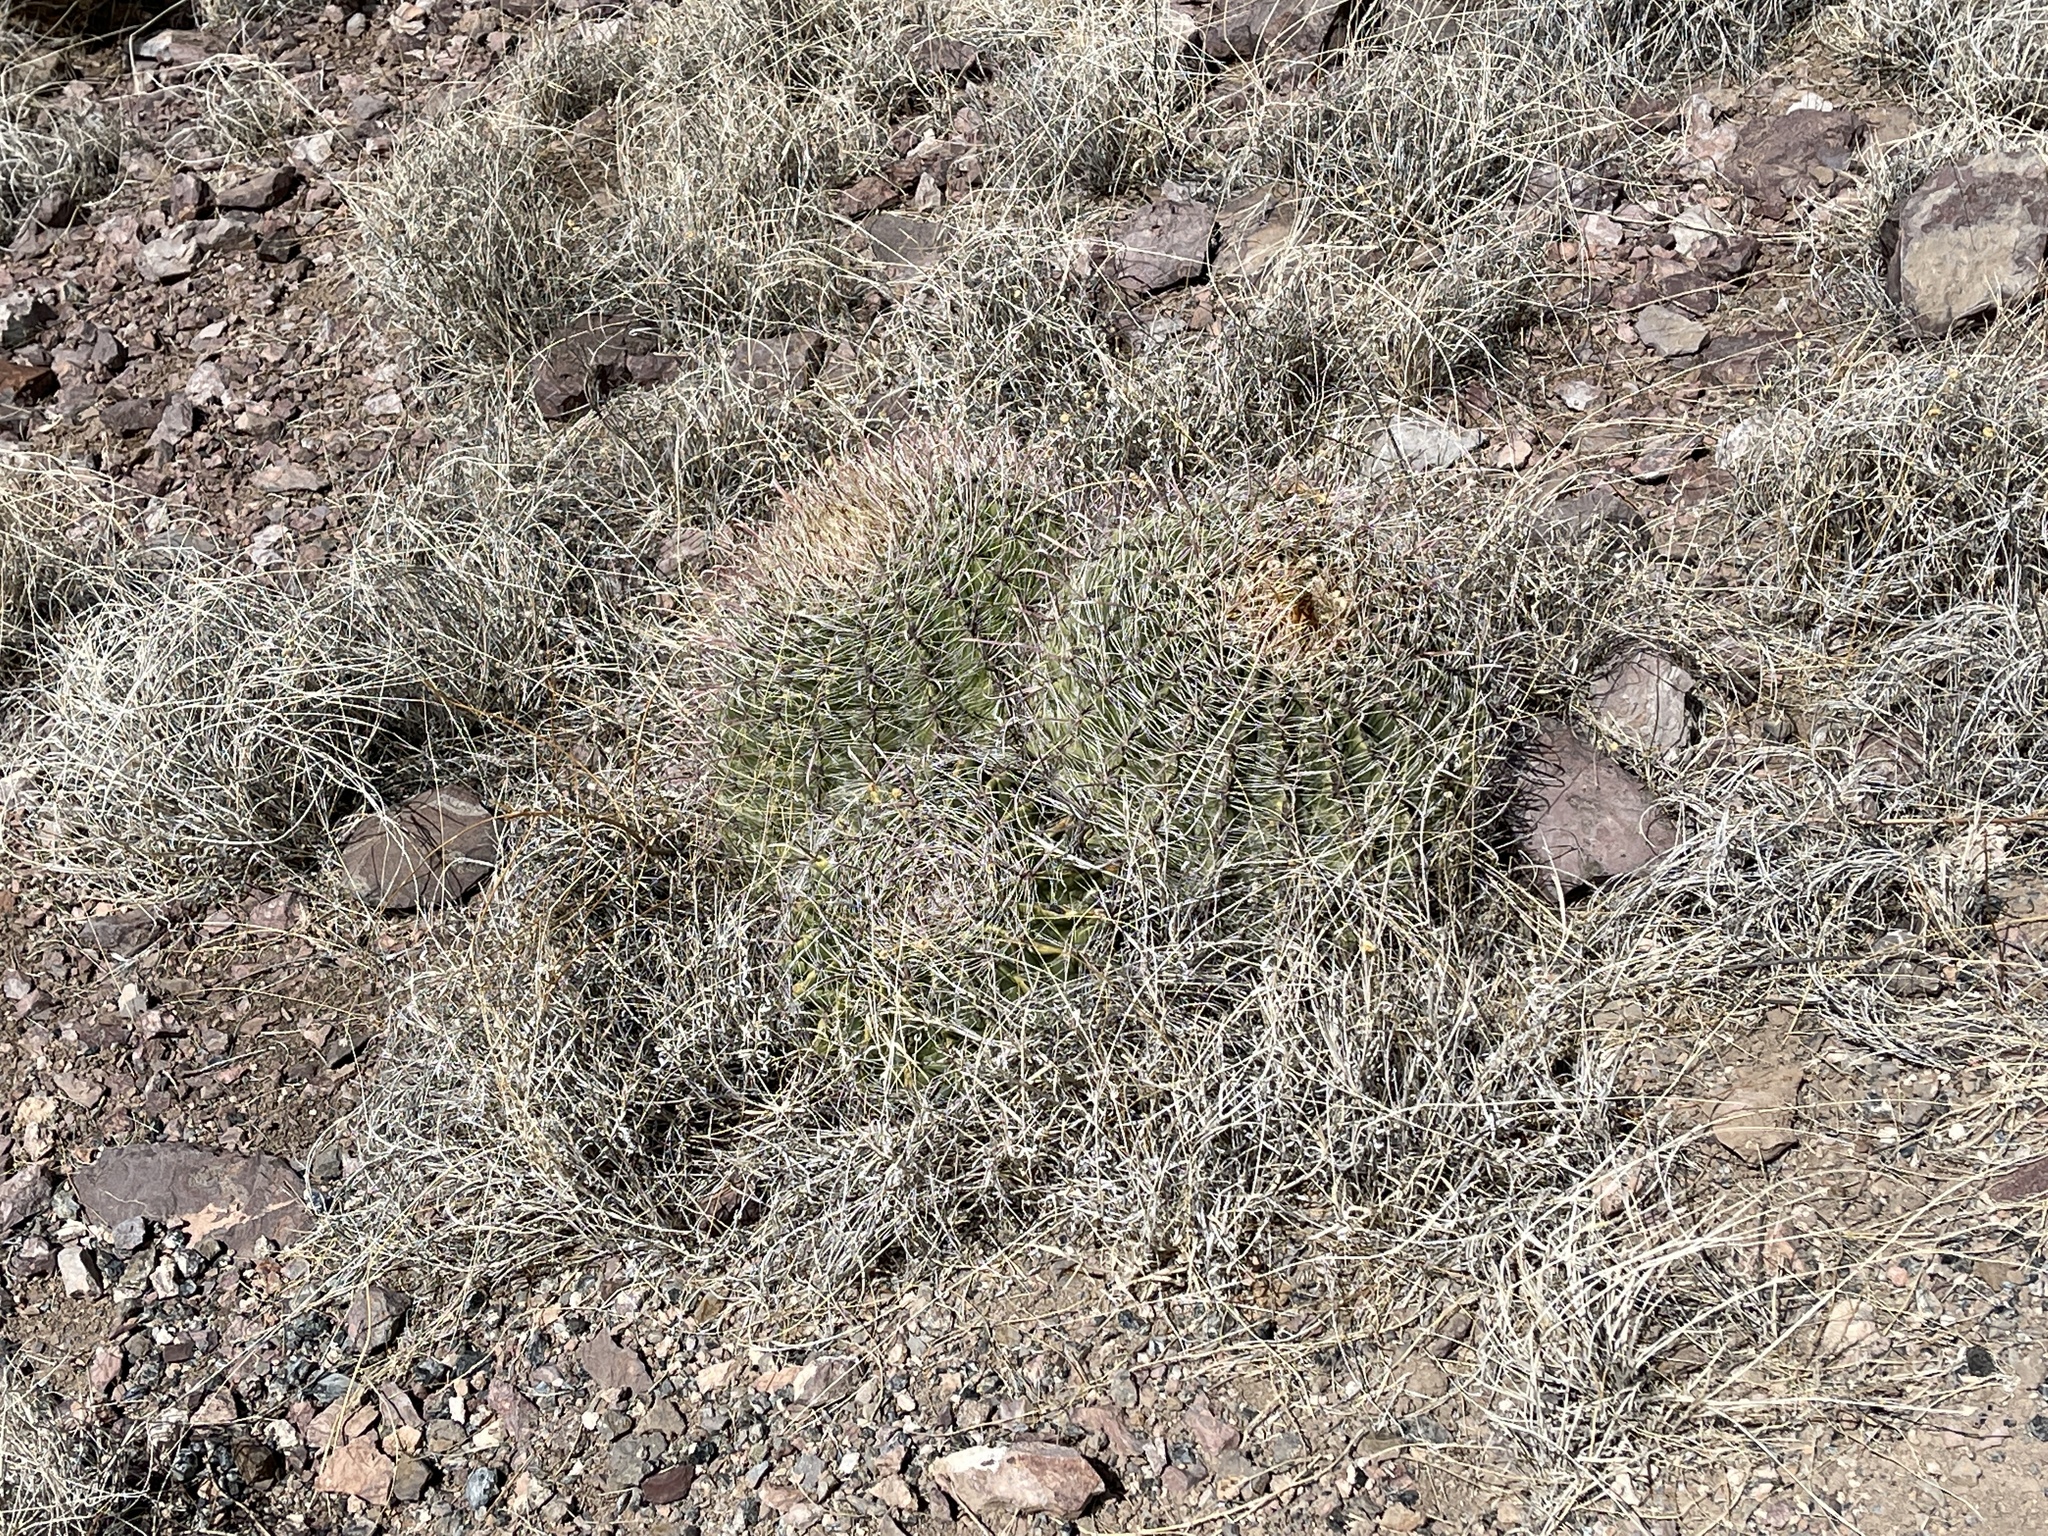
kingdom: Plantae
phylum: Tracheophyta
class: Magnoliopsida
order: Caryophyllales
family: Cactaceae
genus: Ferocactus
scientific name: Ferocactus wislizeni
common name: Candy barrel cactus
